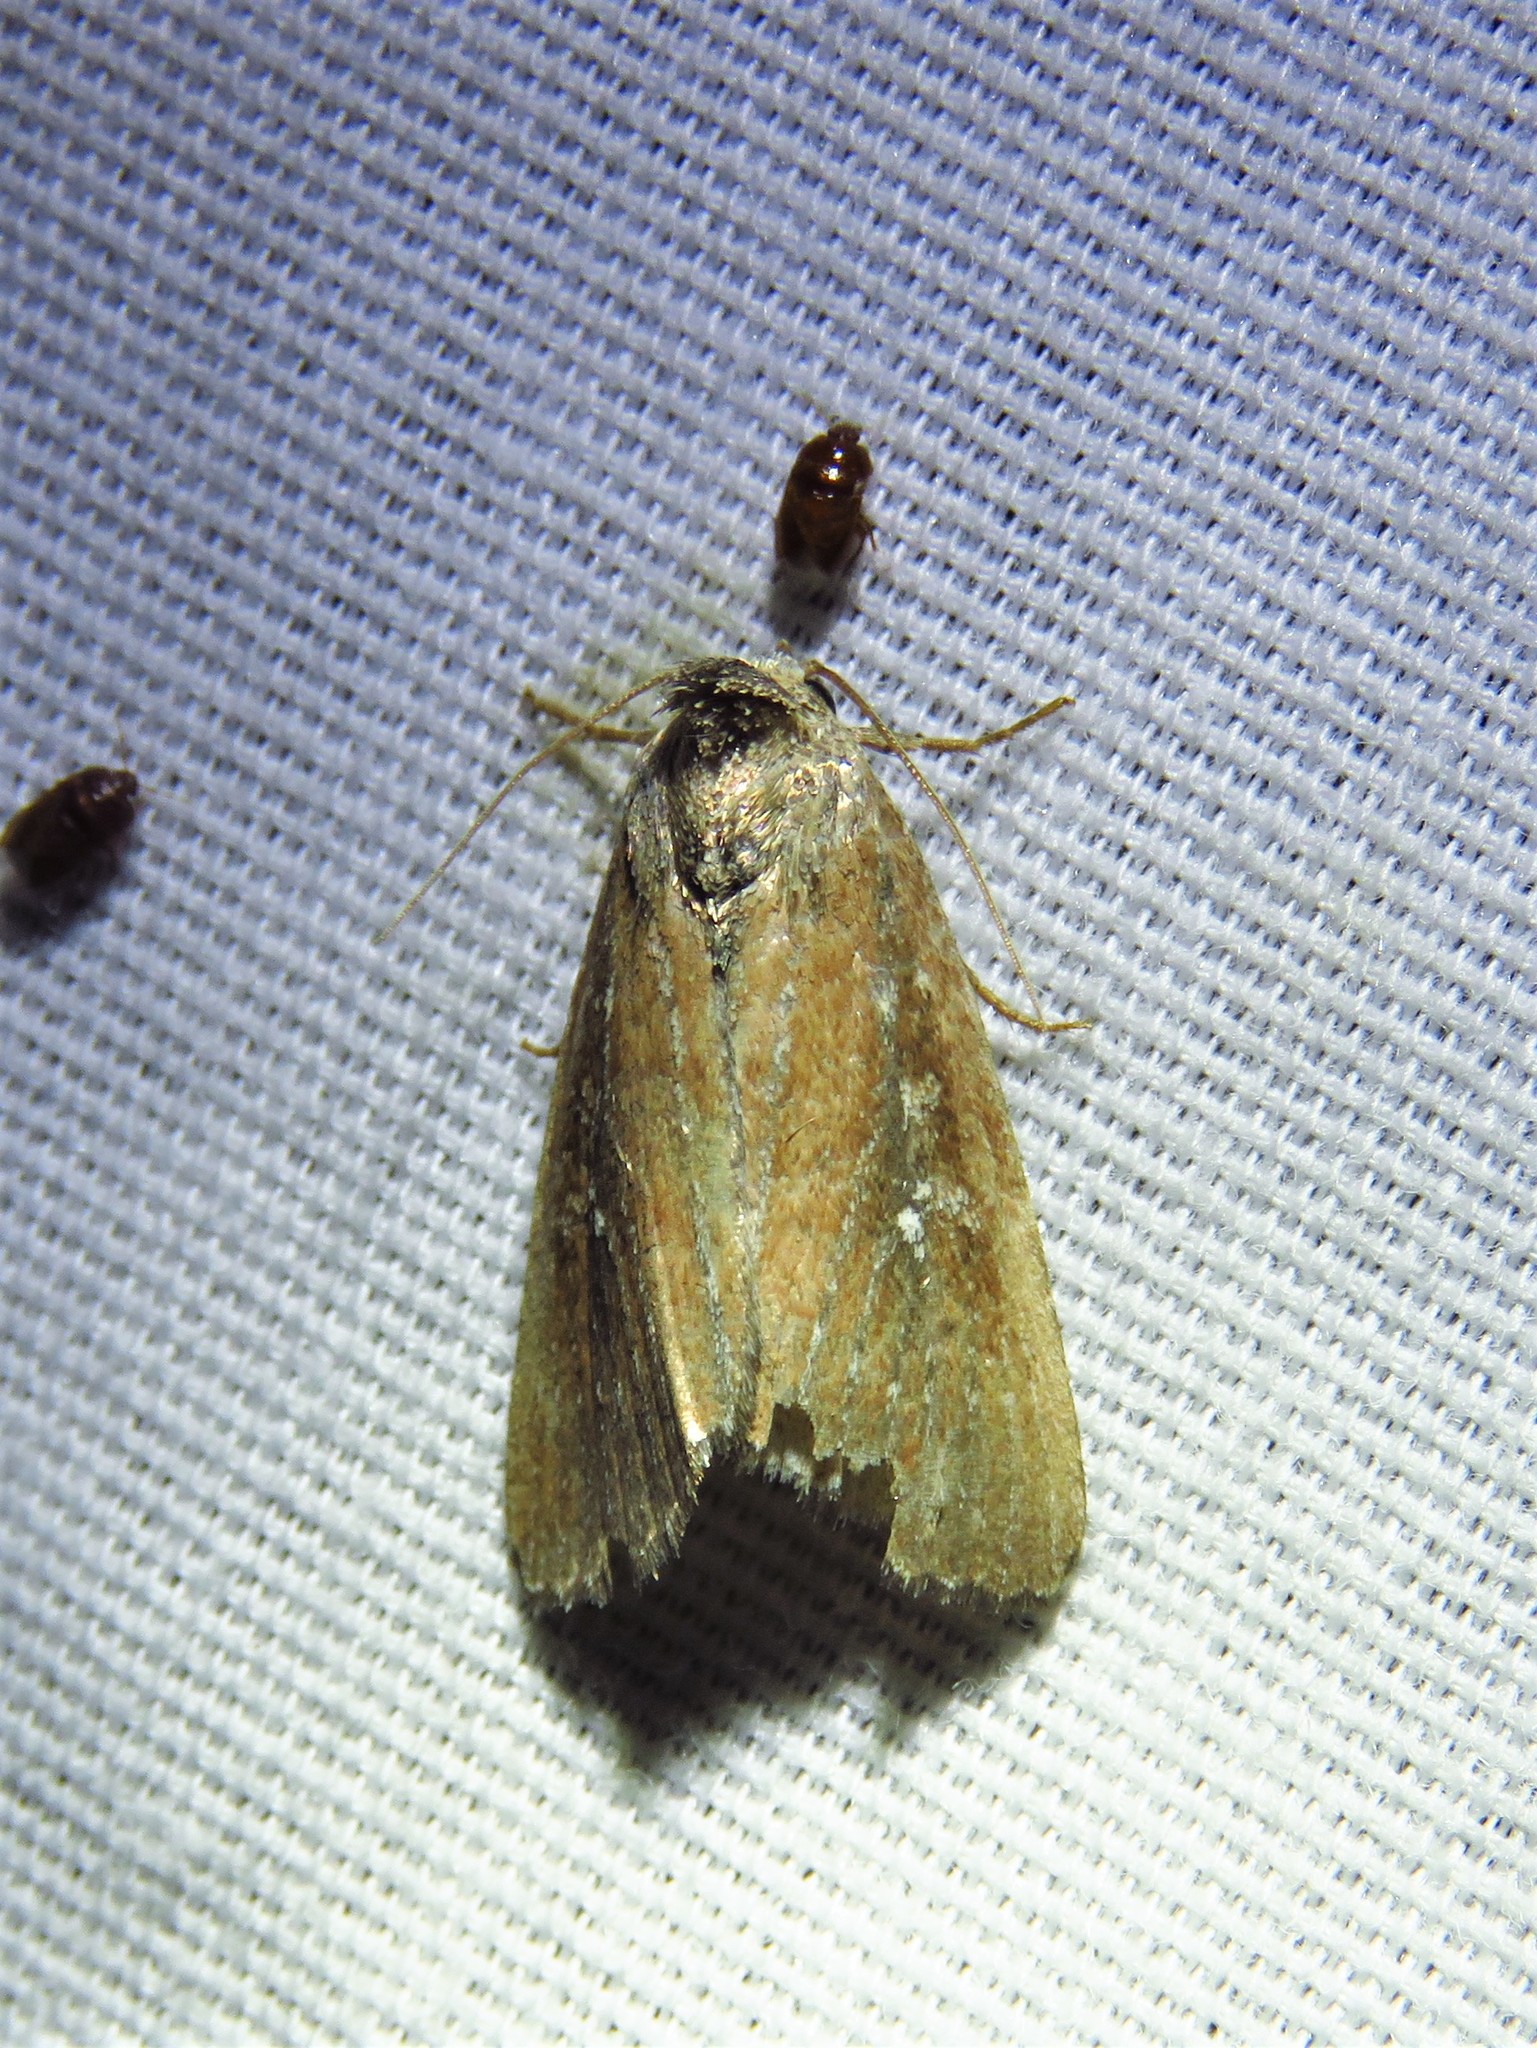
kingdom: Animalia
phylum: Arthropoda
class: Insecta
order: Lepidoptera
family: Noctuidae
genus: Condica
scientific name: Condica videns
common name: White-dotted groundling
